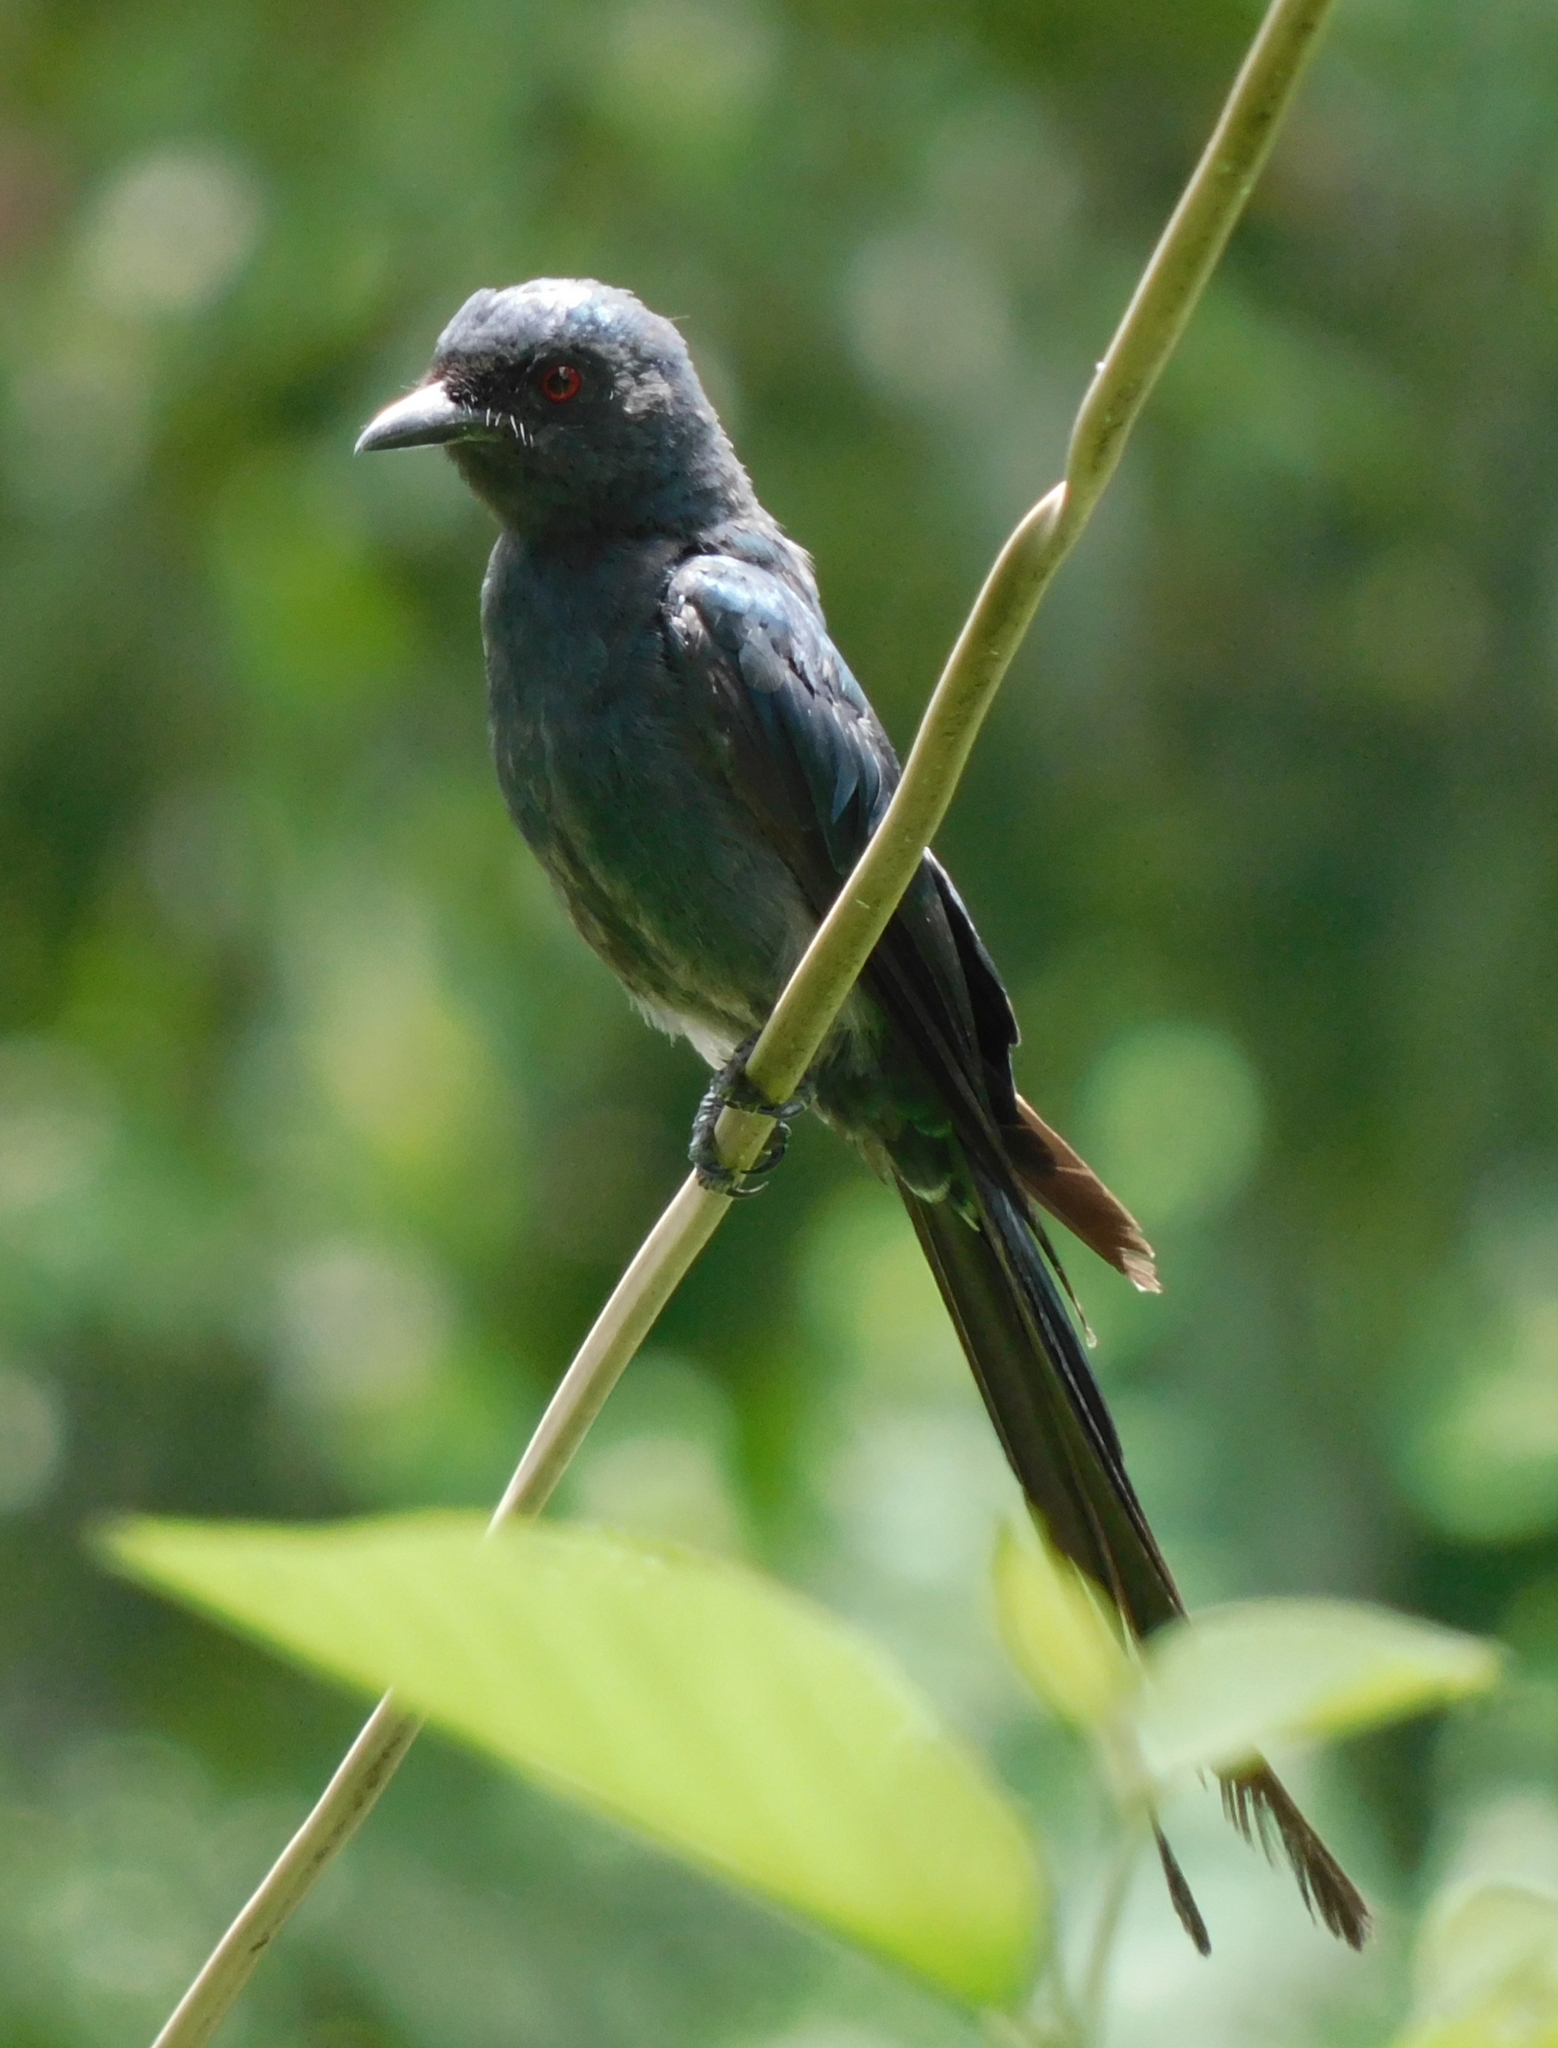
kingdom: Animalia
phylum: Chordata
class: Aves
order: Passeriformes
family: Dicruridae
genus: Dicrurus
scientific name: Dicrurus leucophaeus
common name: Ashy drongo
